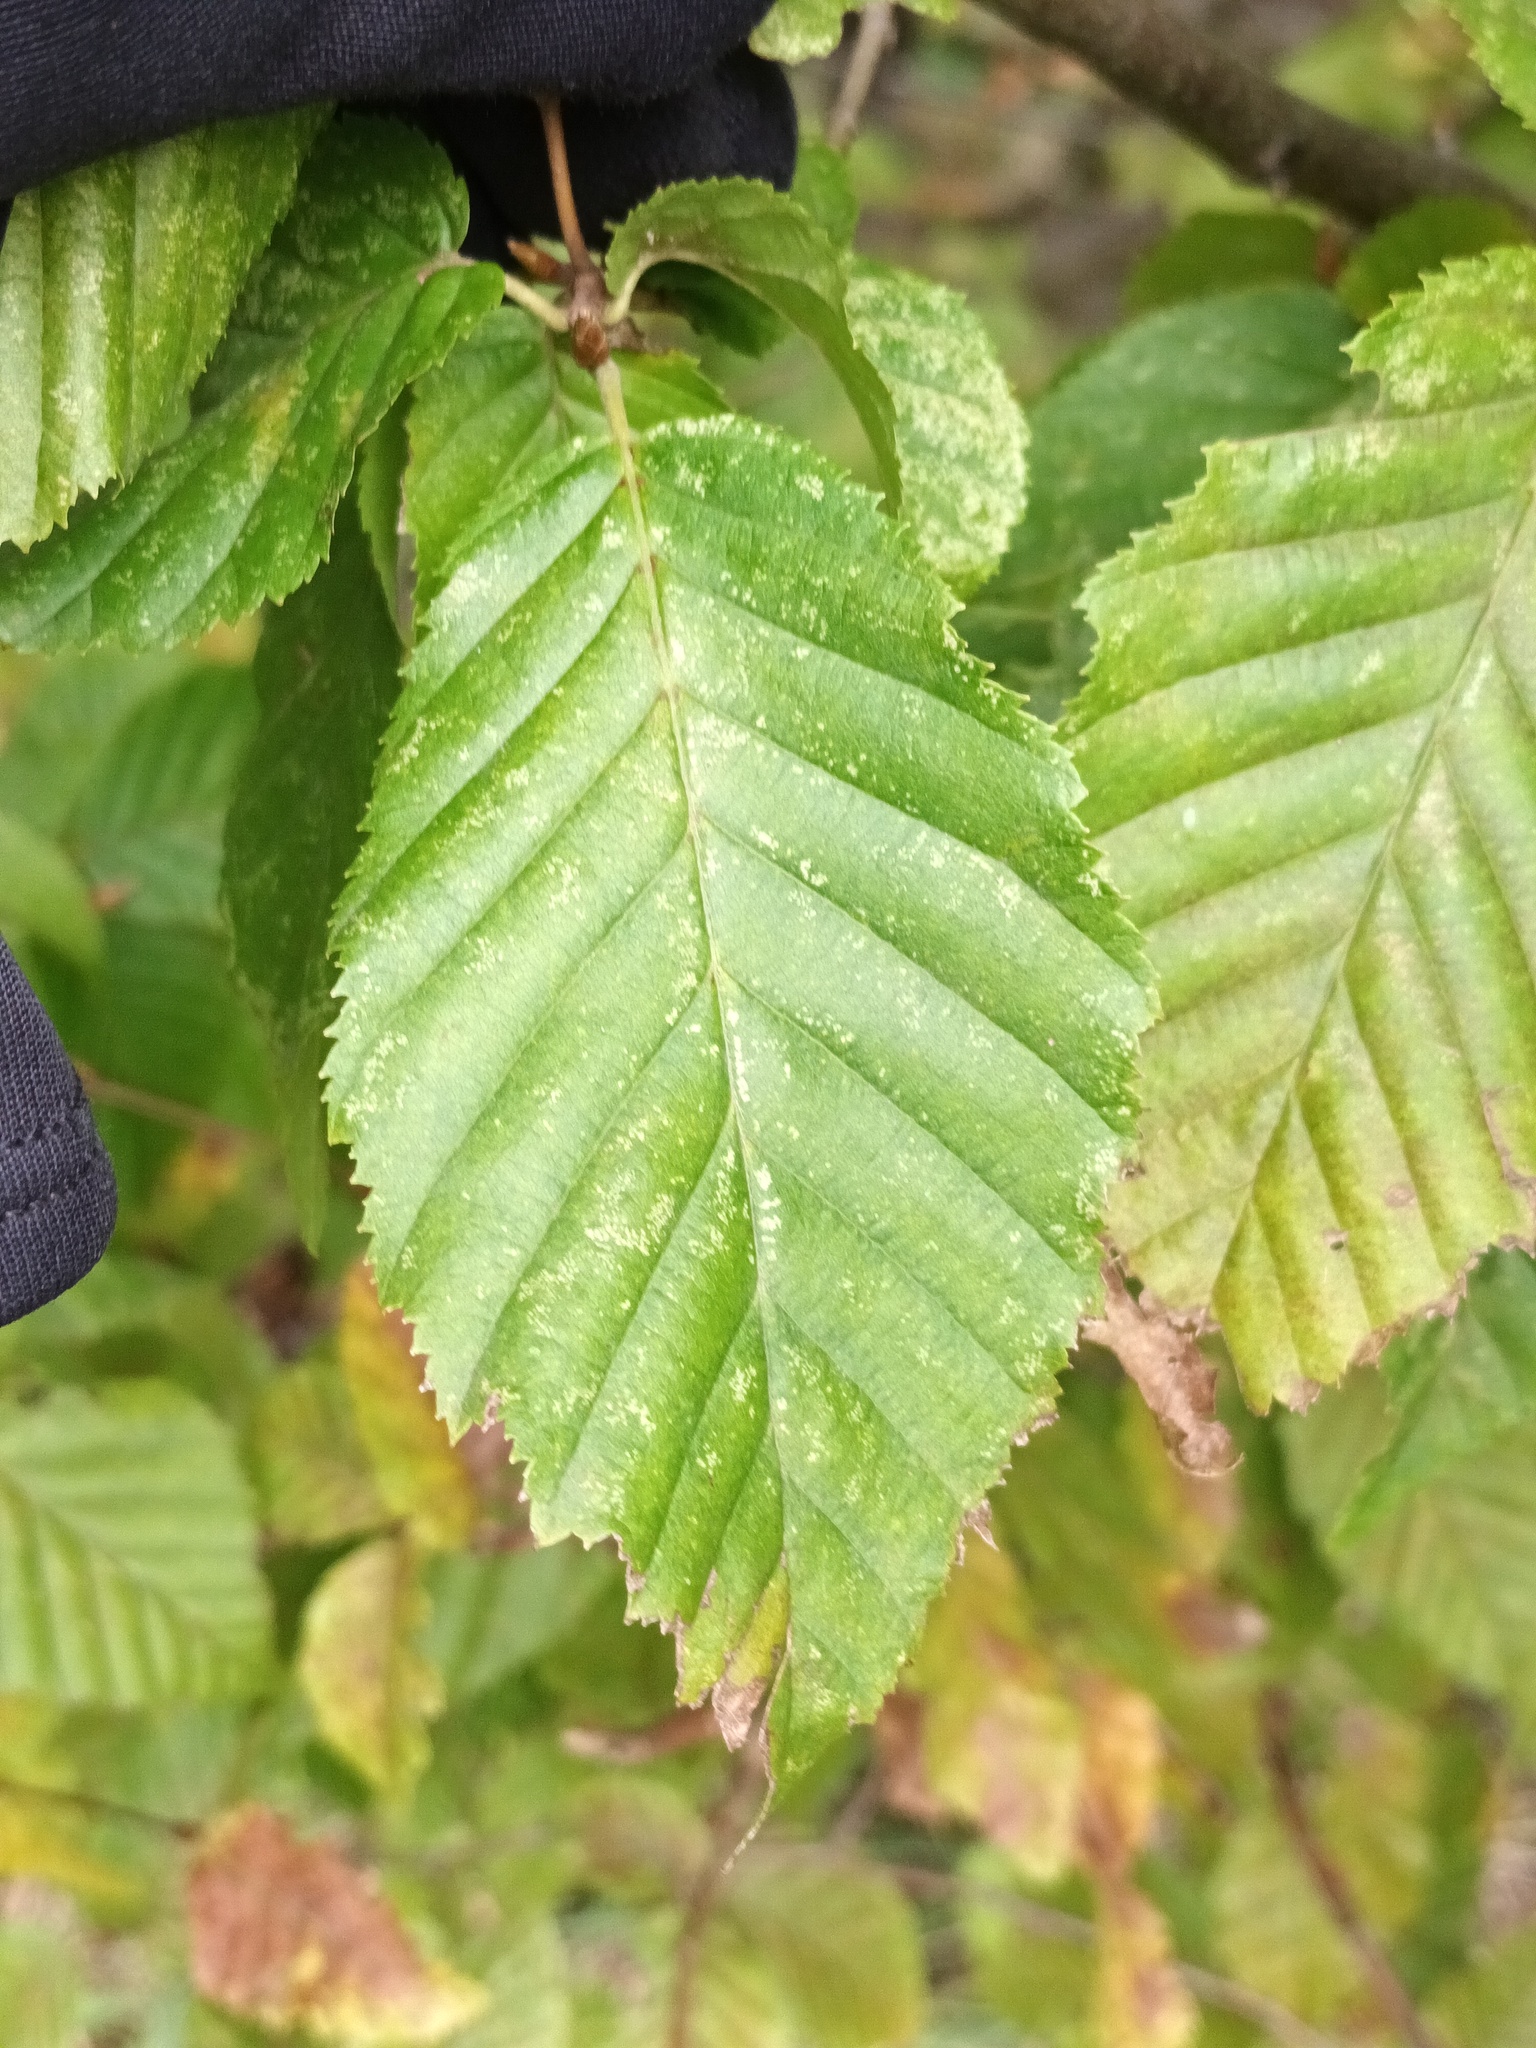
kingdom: Plantae
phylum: Tracheophyta
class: Magnoliopsida
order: Fagales
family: Betulaceae
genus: Carpinus
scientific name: Carpinus betulus
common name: Hornbeam
